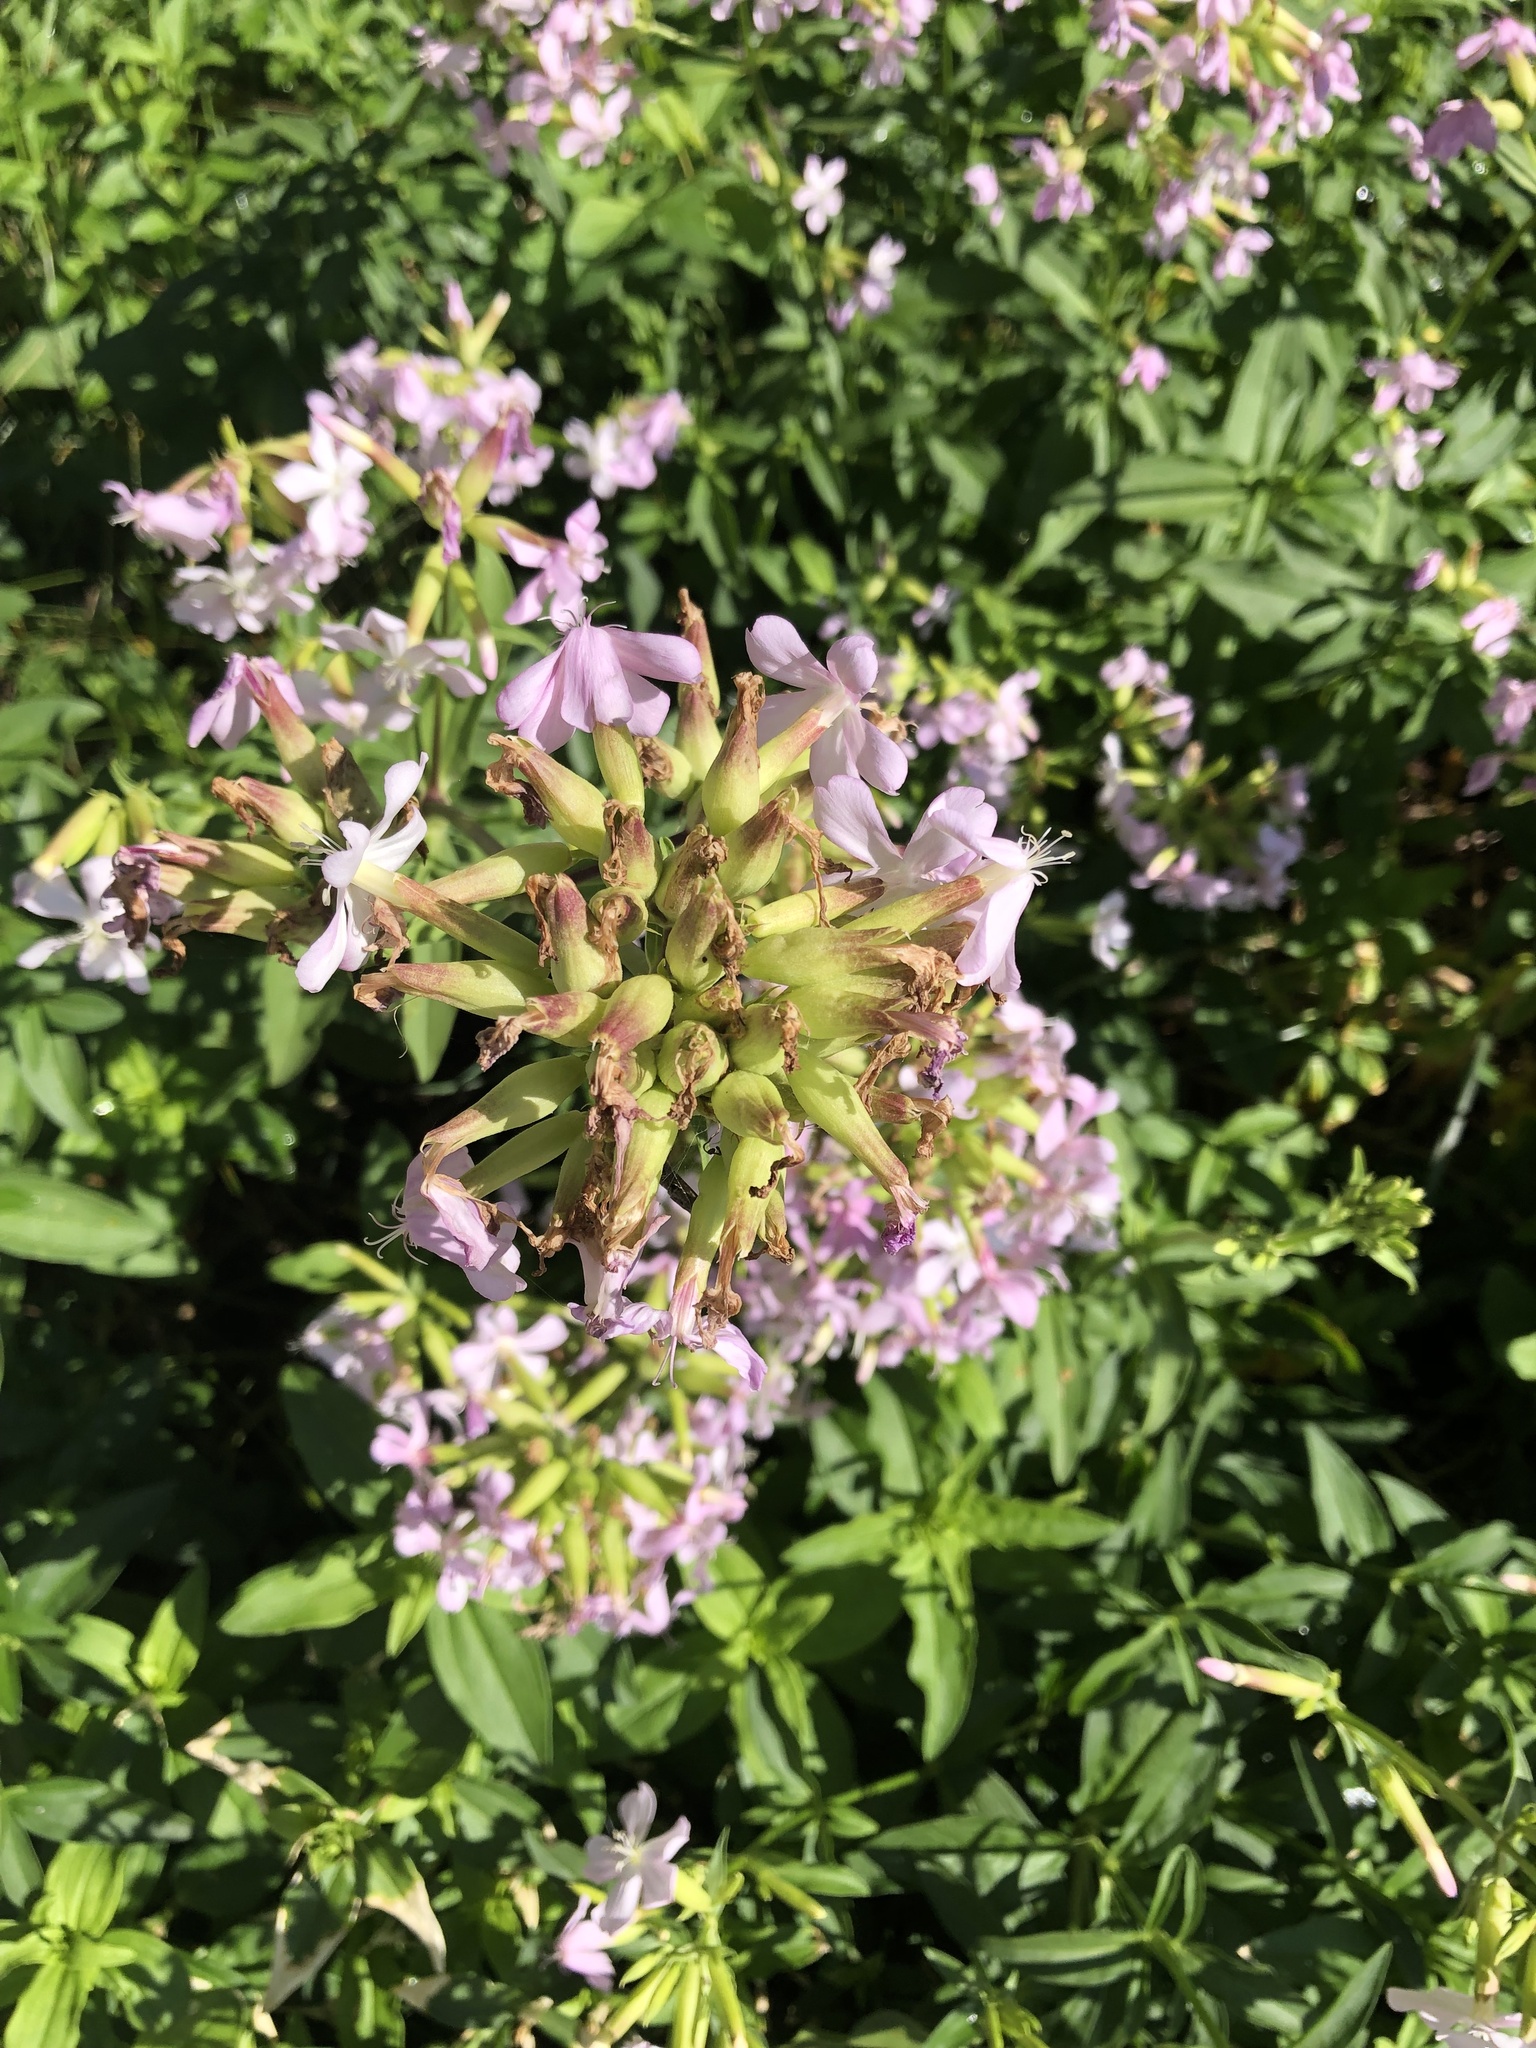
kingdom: Plantae
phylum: Tracheophyta
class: Magnoliopsida
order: Caryophyllales
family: Caryophyllaceae
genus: Saponaria
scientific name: Saponaria officinalis
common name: Soapwort
